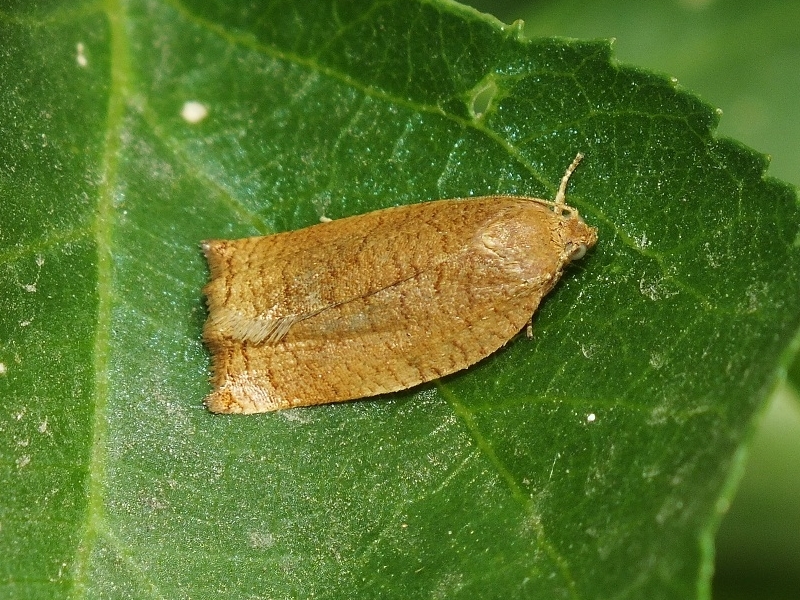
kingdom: Animalia
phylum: Arthropoda
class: Insecta
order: Lepidoptera
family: Tortricidae
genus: Archips
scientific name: Archips rosana
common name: Rose tortrix
